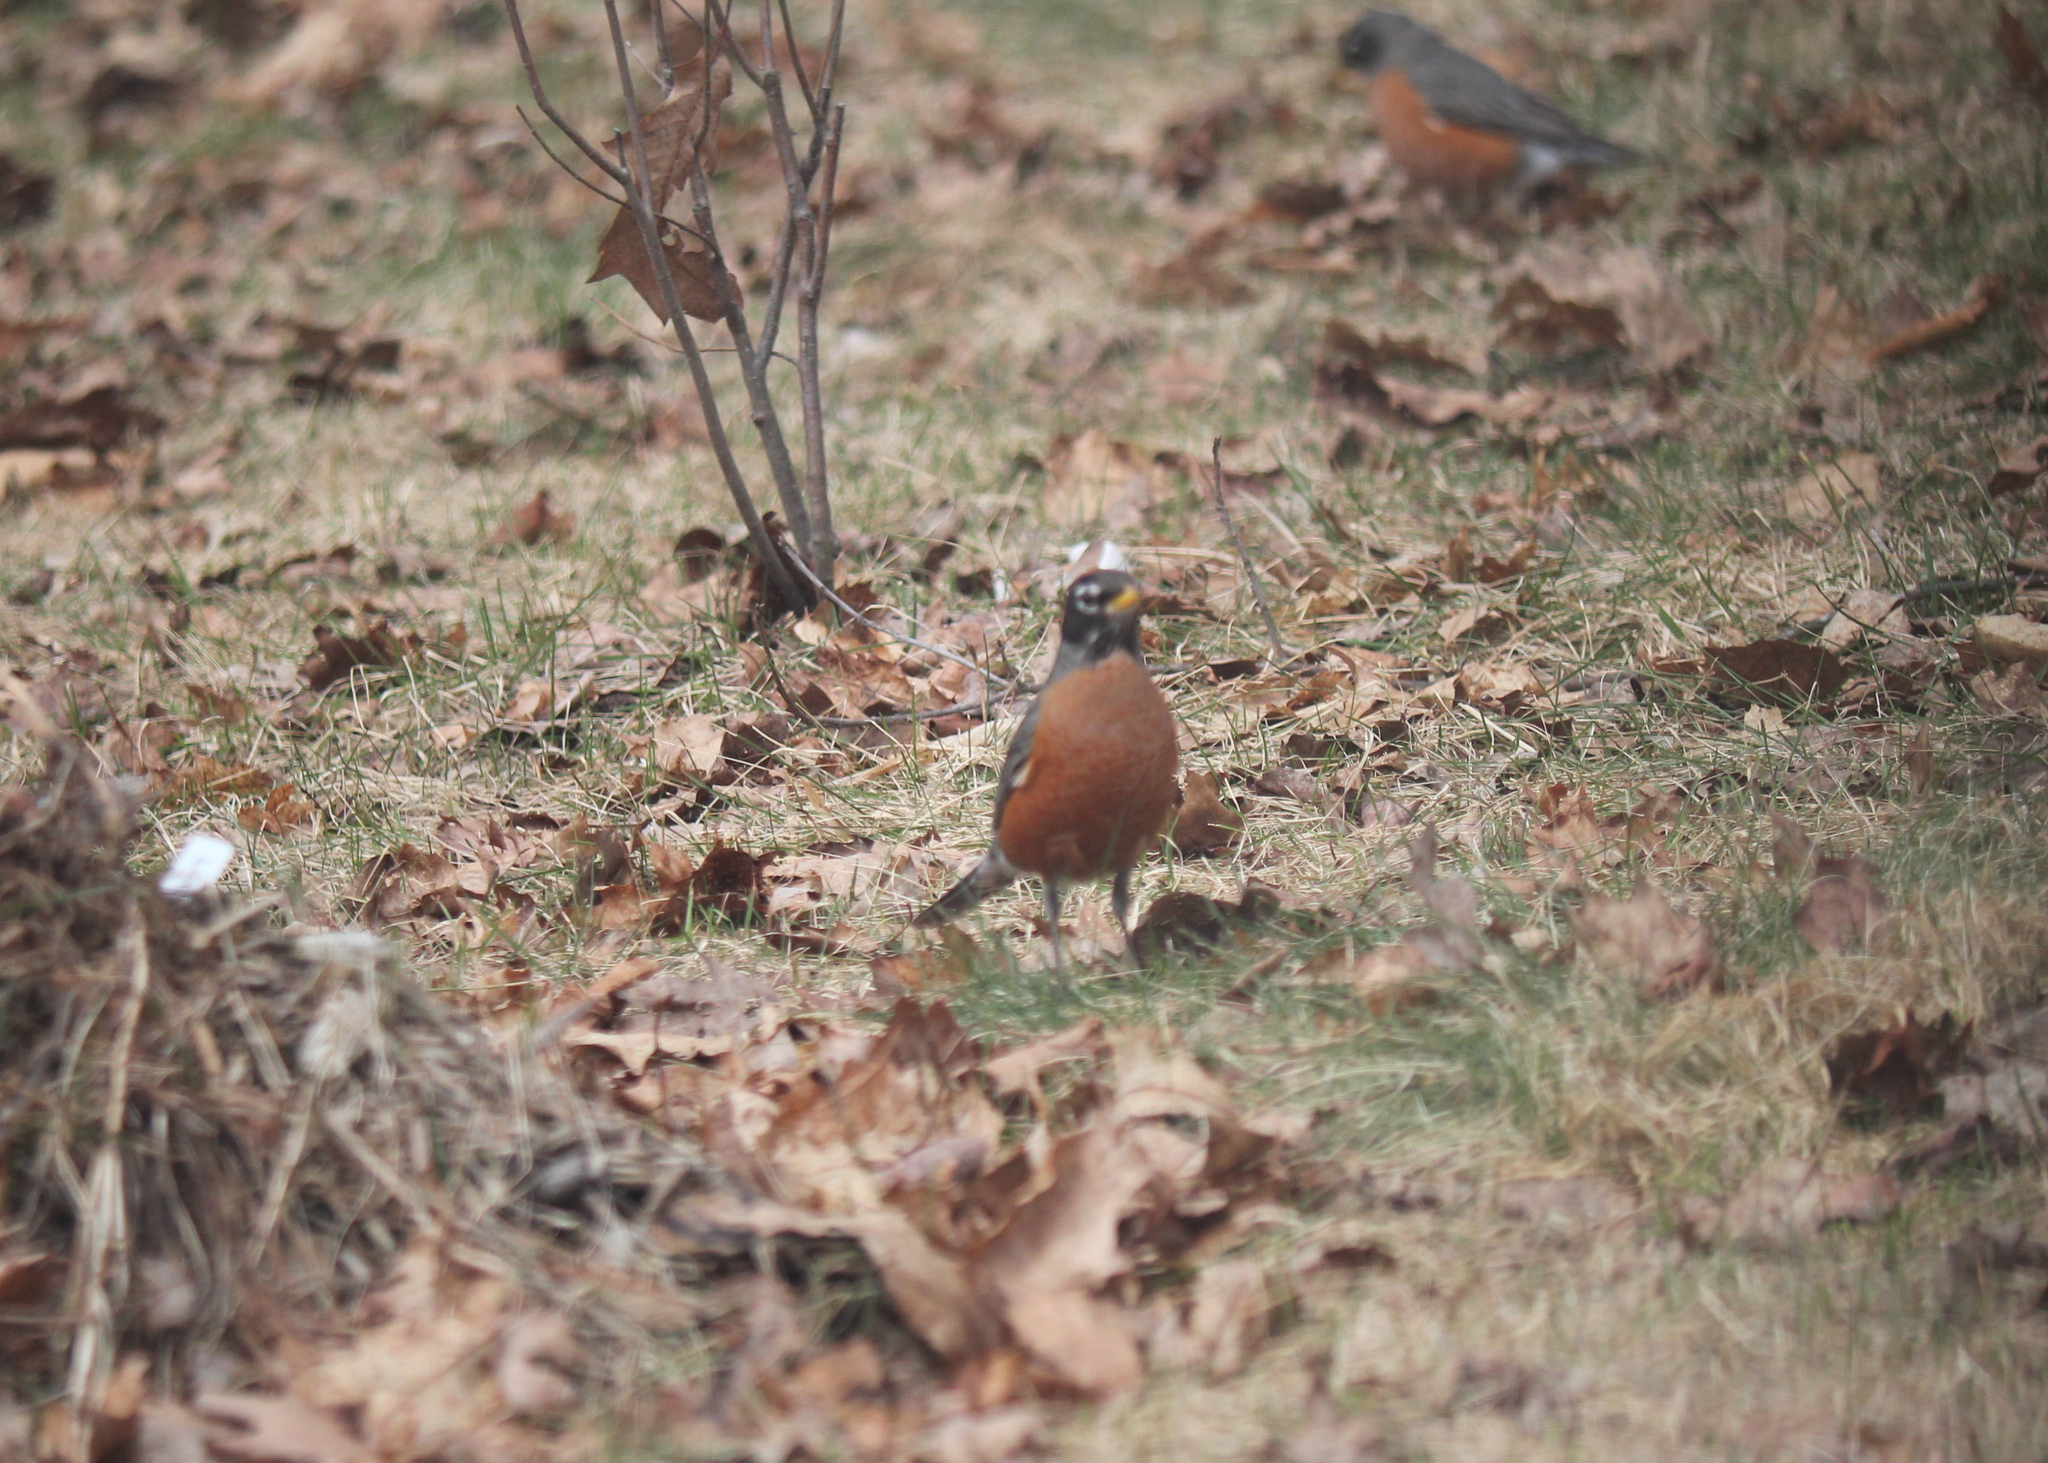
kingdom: Animalia
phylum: Chordata
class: Aves
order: Passeriformes
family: Turdidae
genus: Turdus
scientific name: Turdus migratorius
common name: American robin
